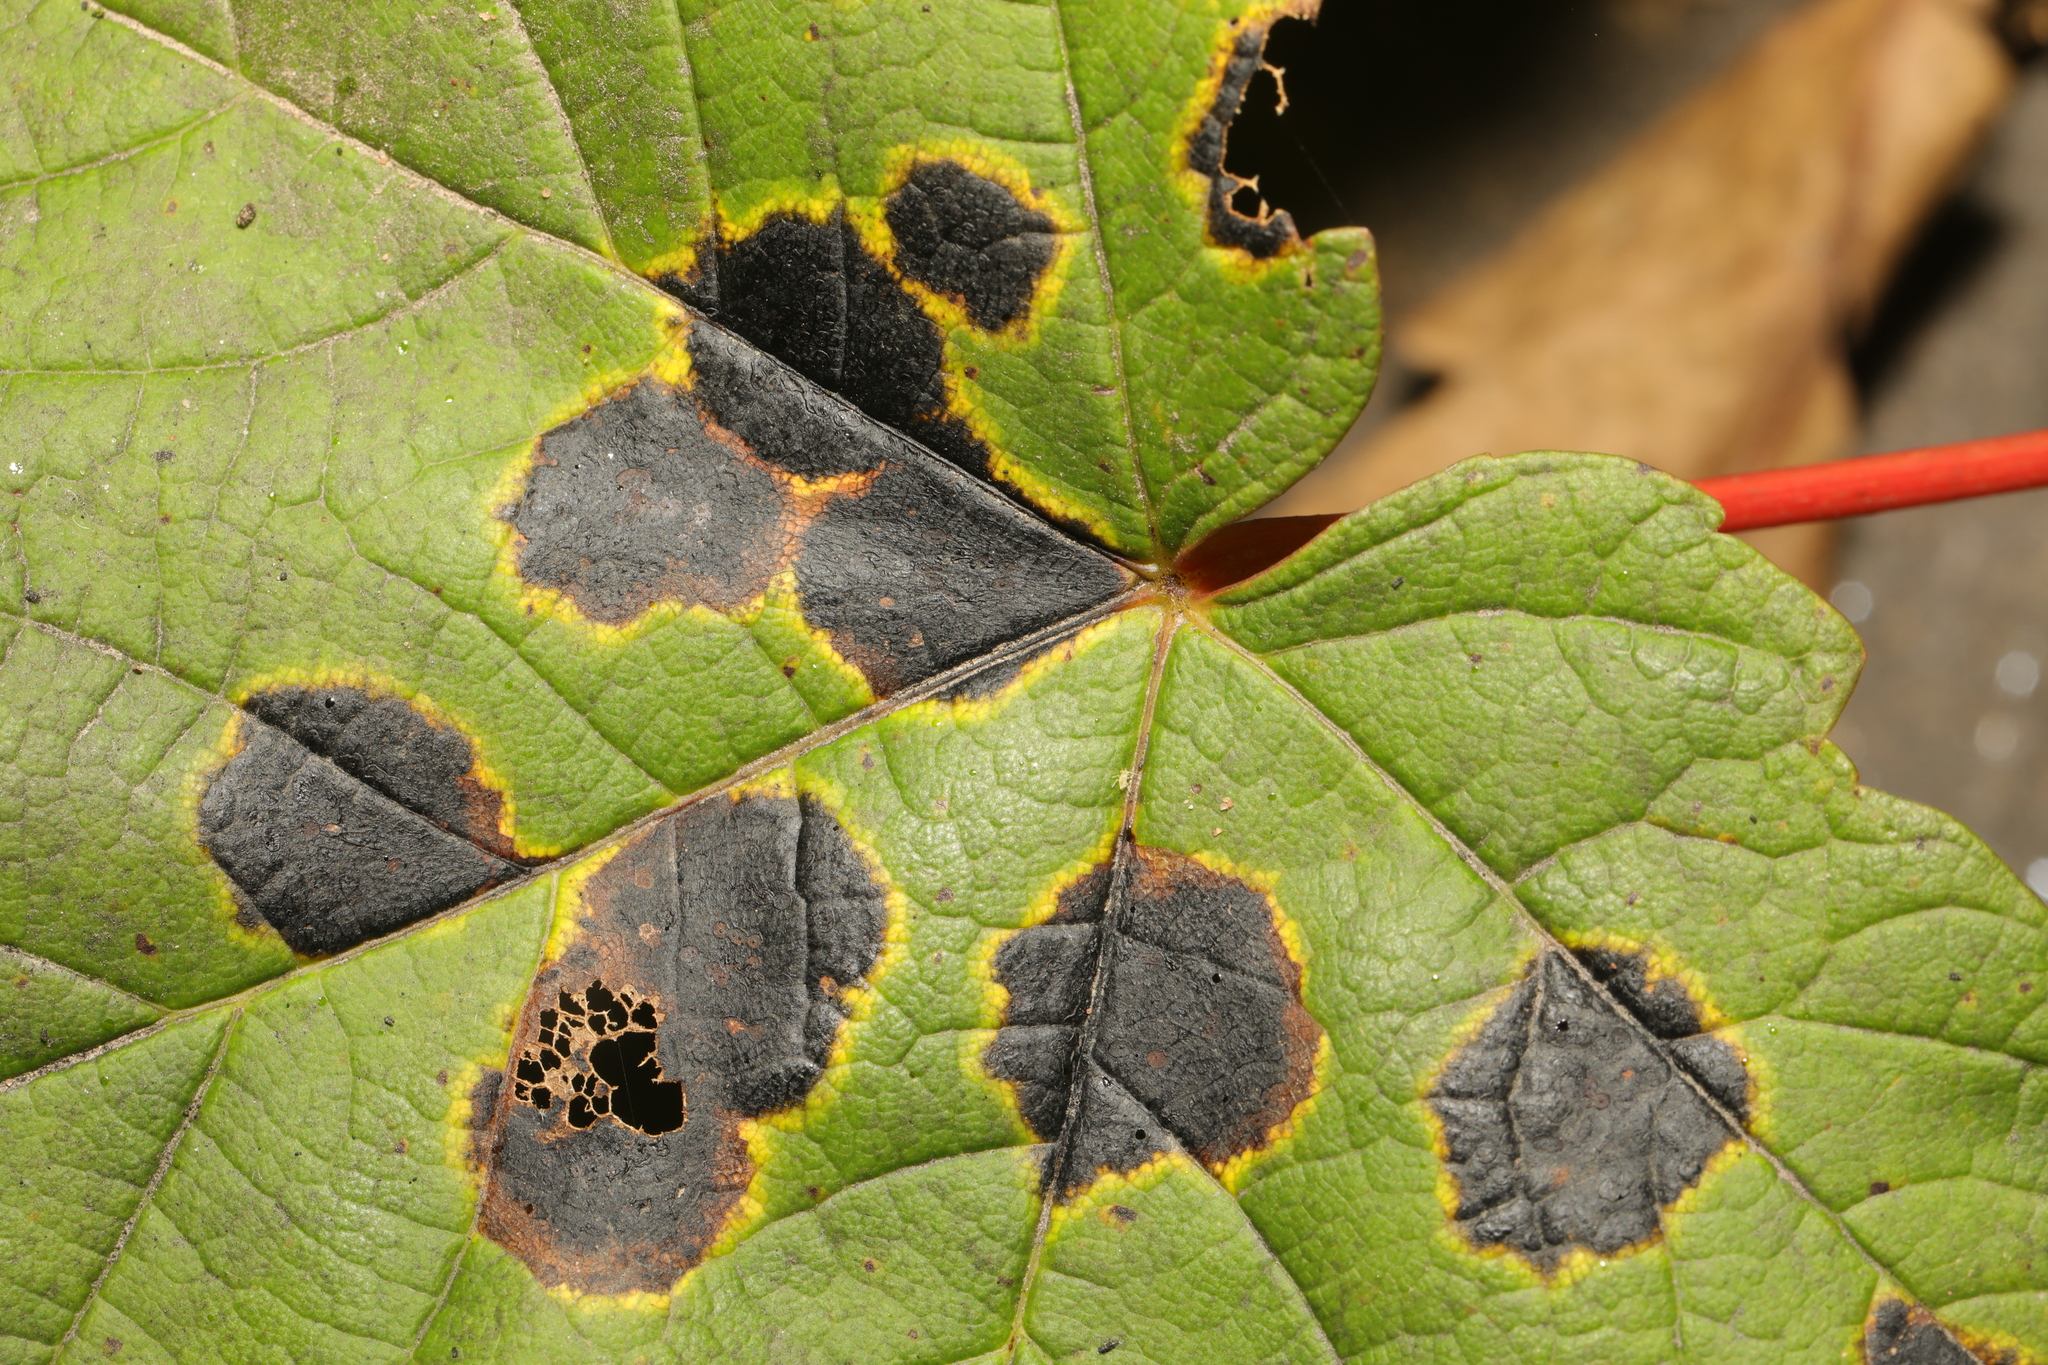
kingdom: Fungi
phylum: Ascomycota
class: Leotiomycetes
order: Rhytismatales
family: Rhytismataceae
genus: Rhytisma
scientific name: Rhytisma acerinum
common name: European tar spot
